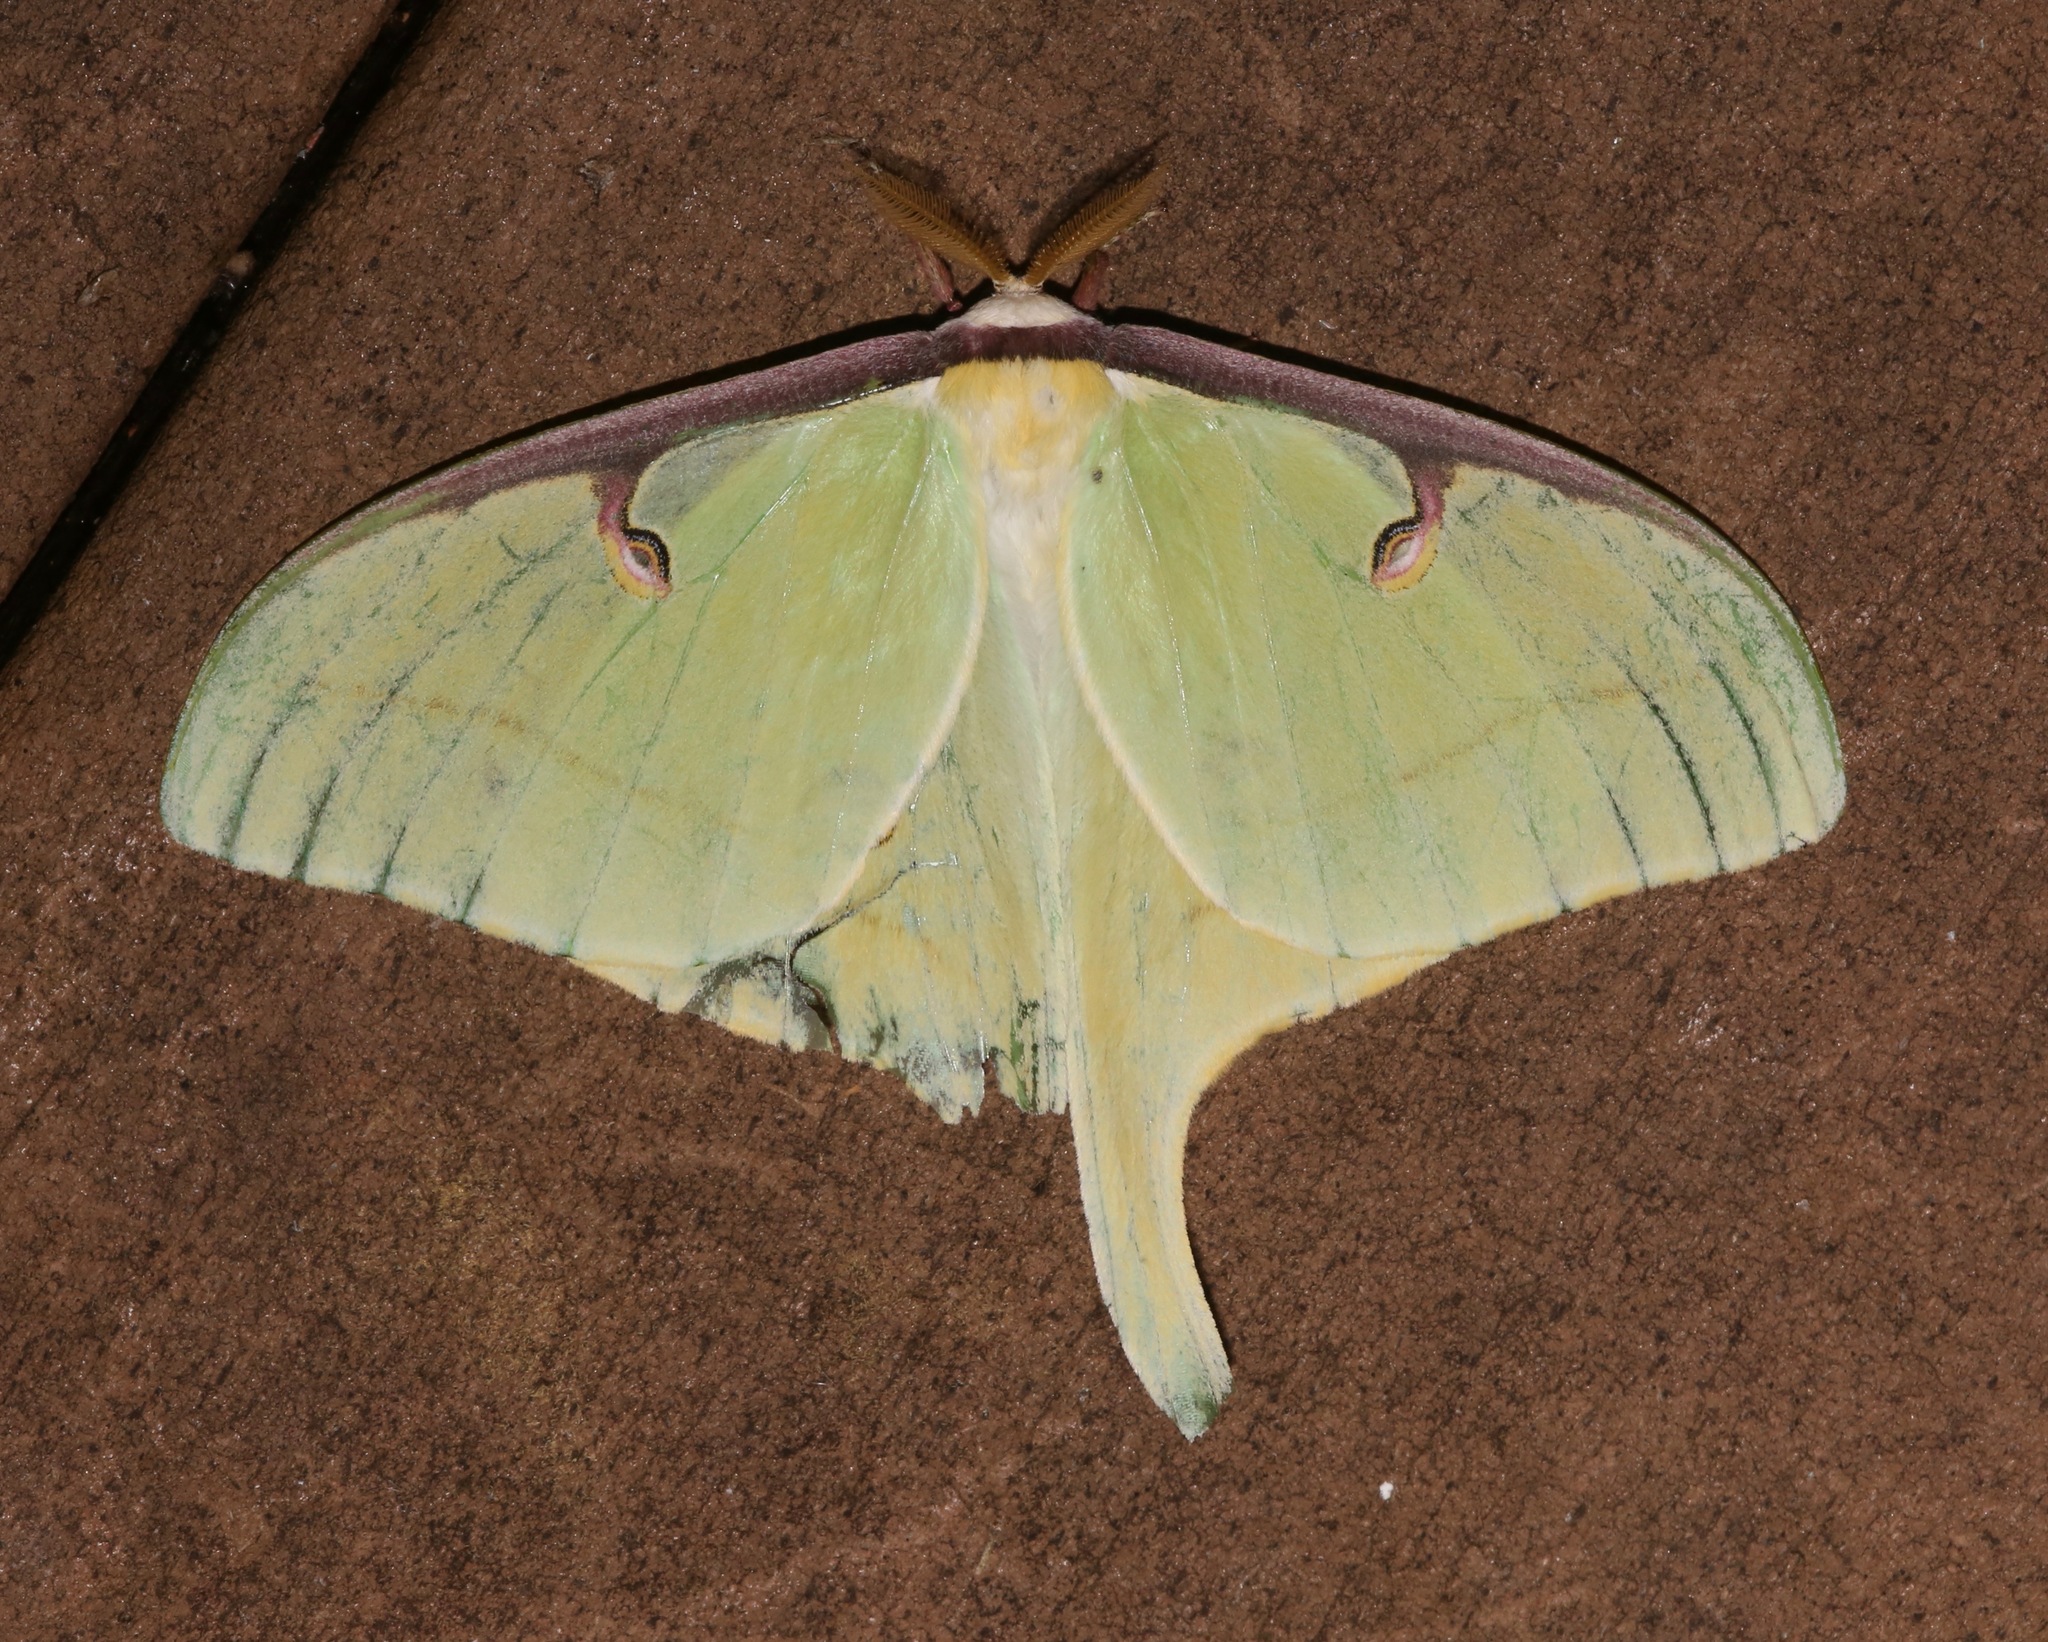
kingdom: Animalia
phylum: Arthropoda
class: Insecta
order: Lepidoptera
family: Saturniidae
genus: Actias
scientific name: Actias luna
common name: Luna moth
